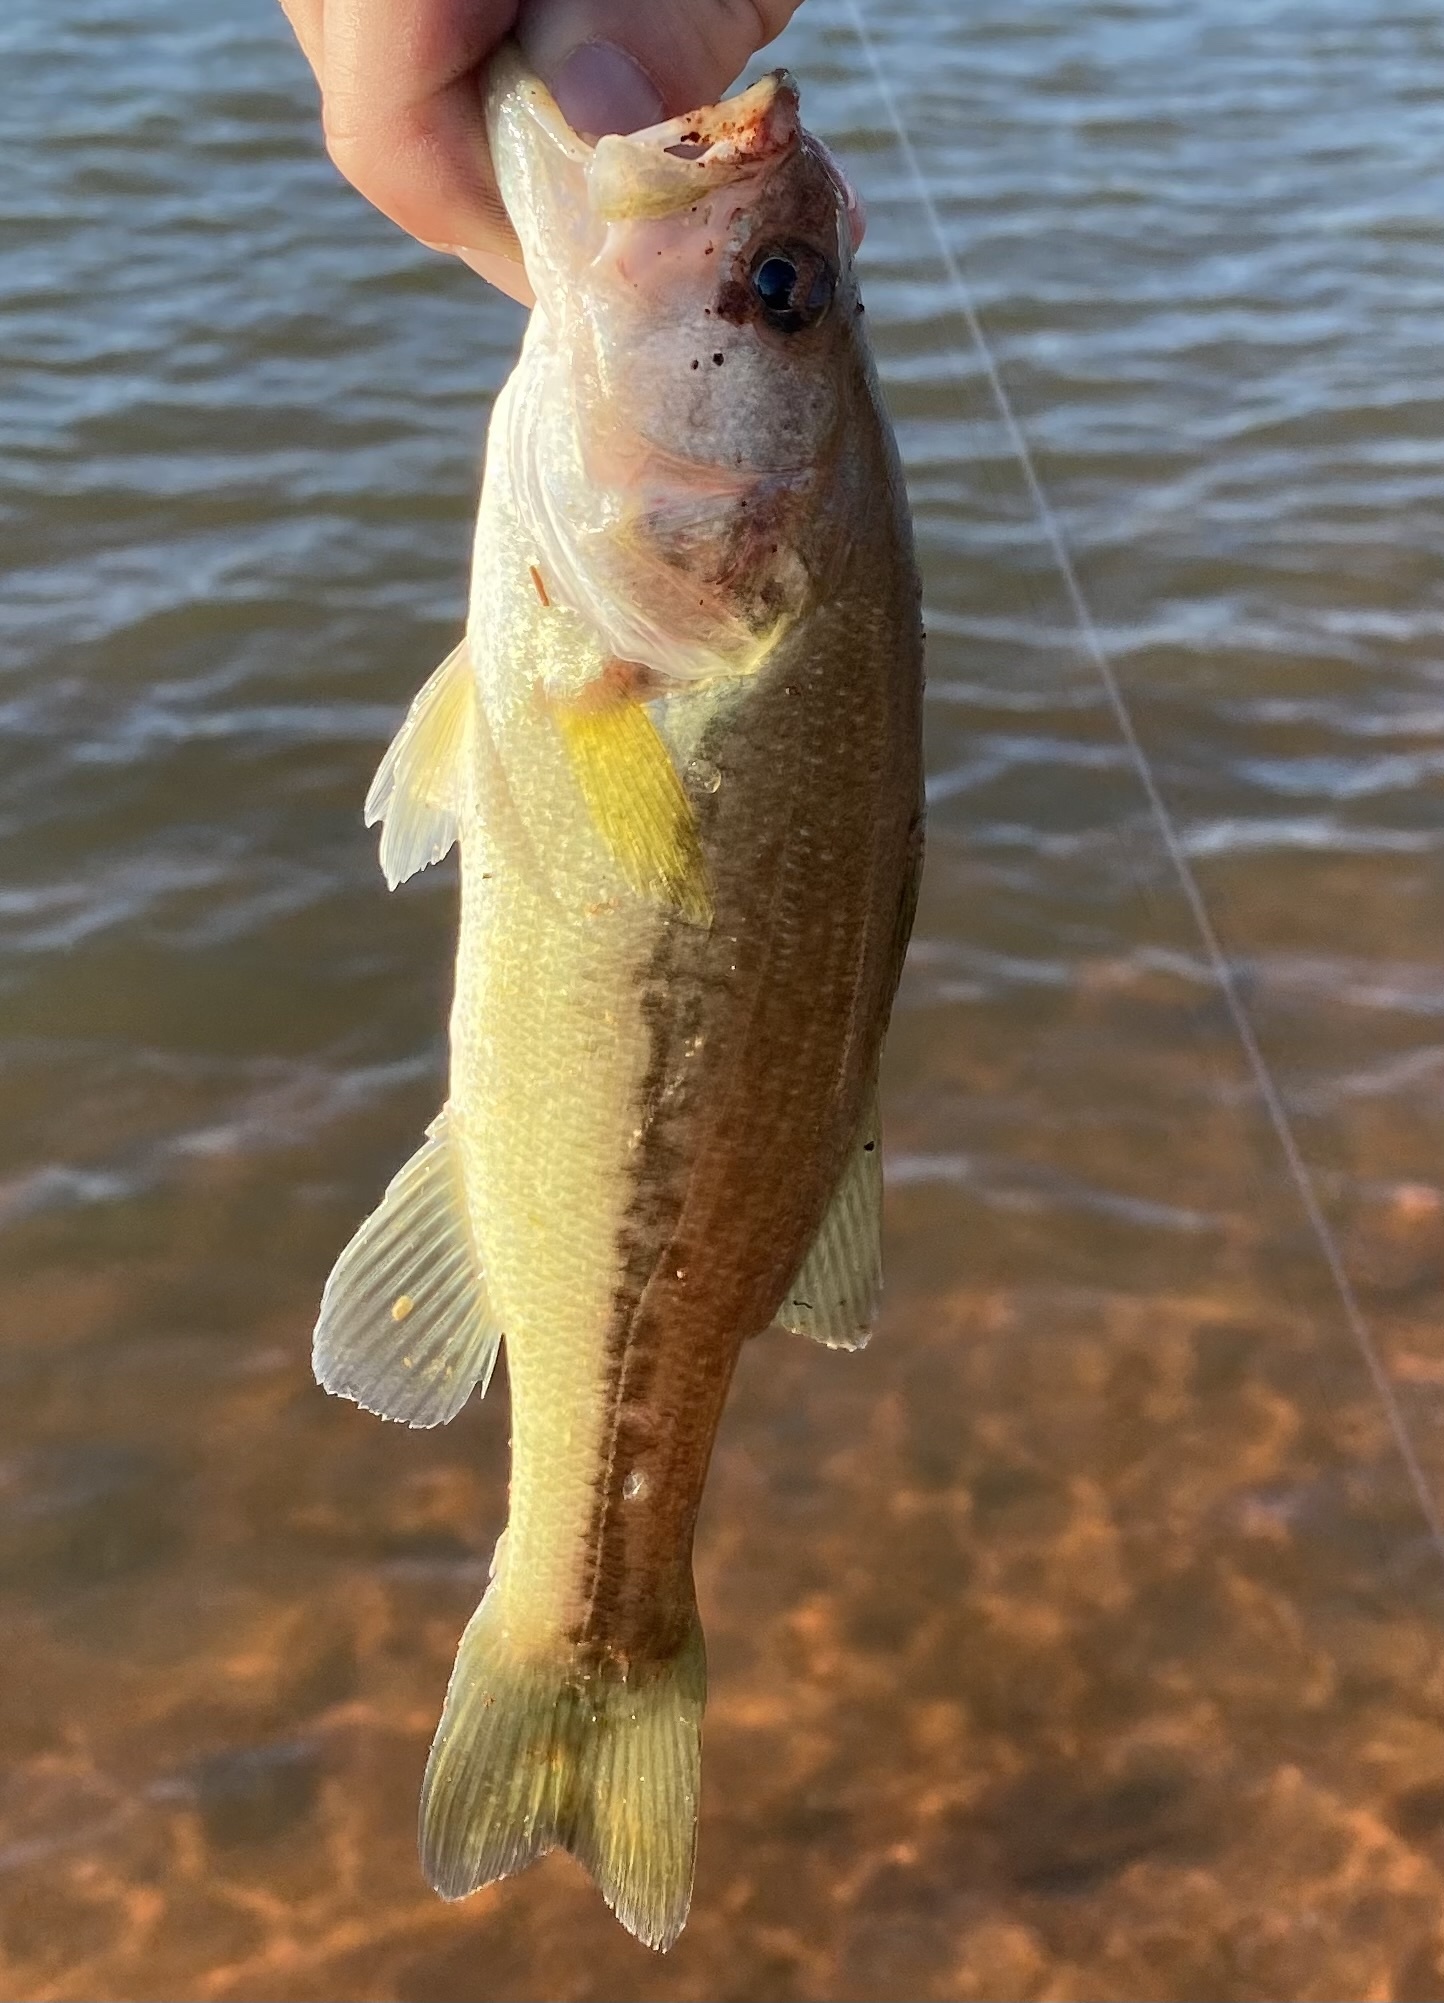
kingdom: Animalia
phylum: Chordata
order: Perciformes
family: Centrarchidae
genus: Micropterus
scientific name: Micropterus
